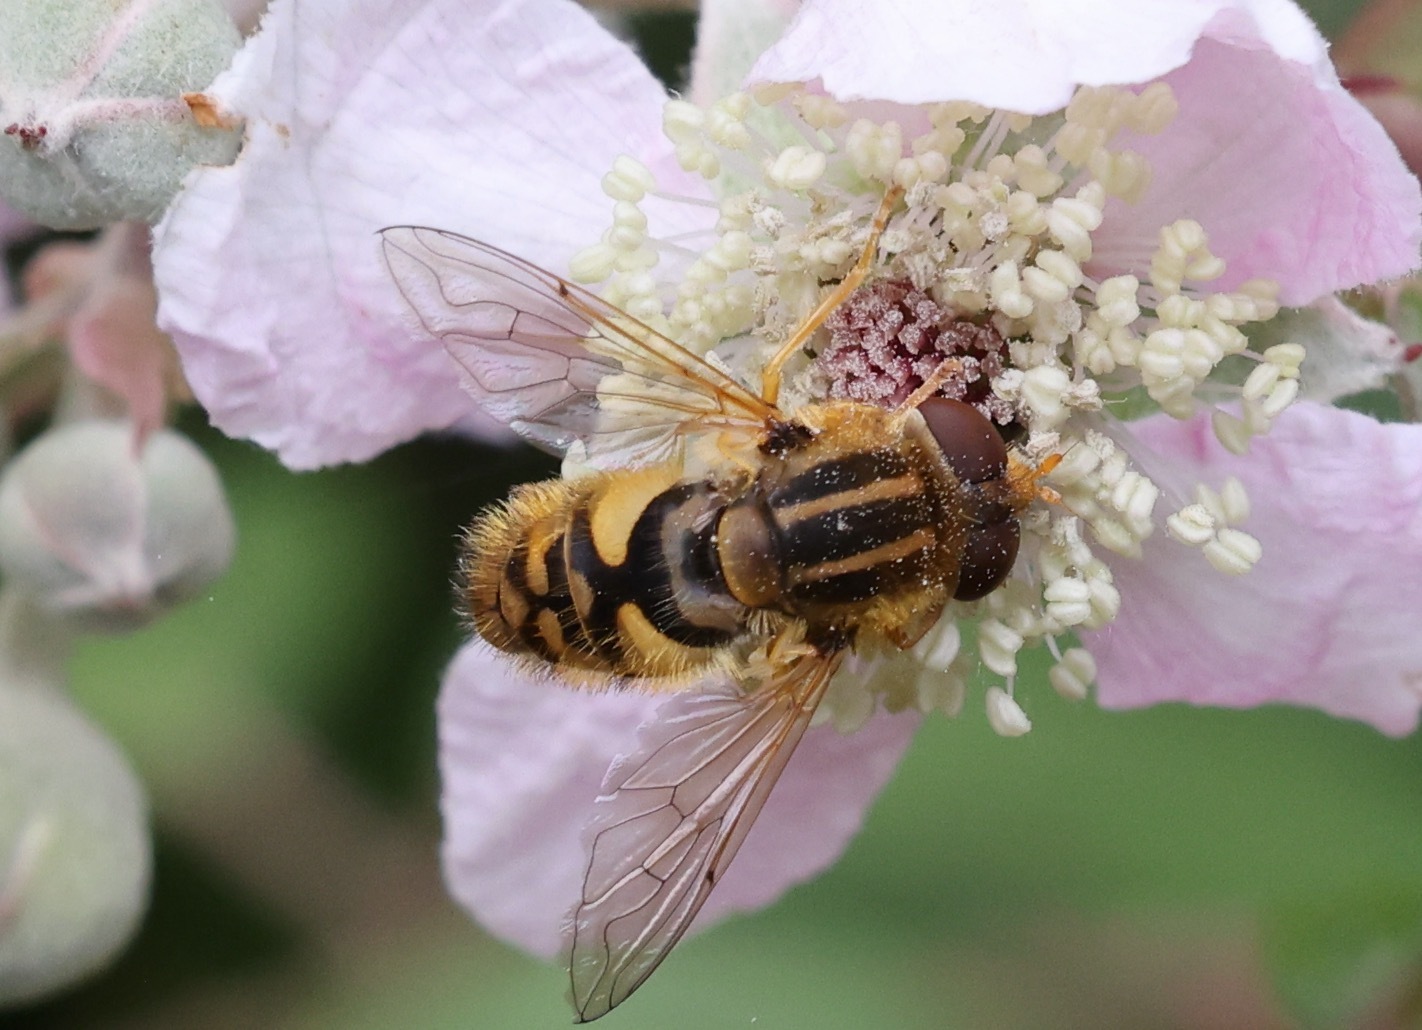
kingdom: Animalia
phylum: Arthropoda
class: Insecta
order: Diptera
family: Syrphidae
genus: Parhelophilus
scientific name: Parhelophilus
